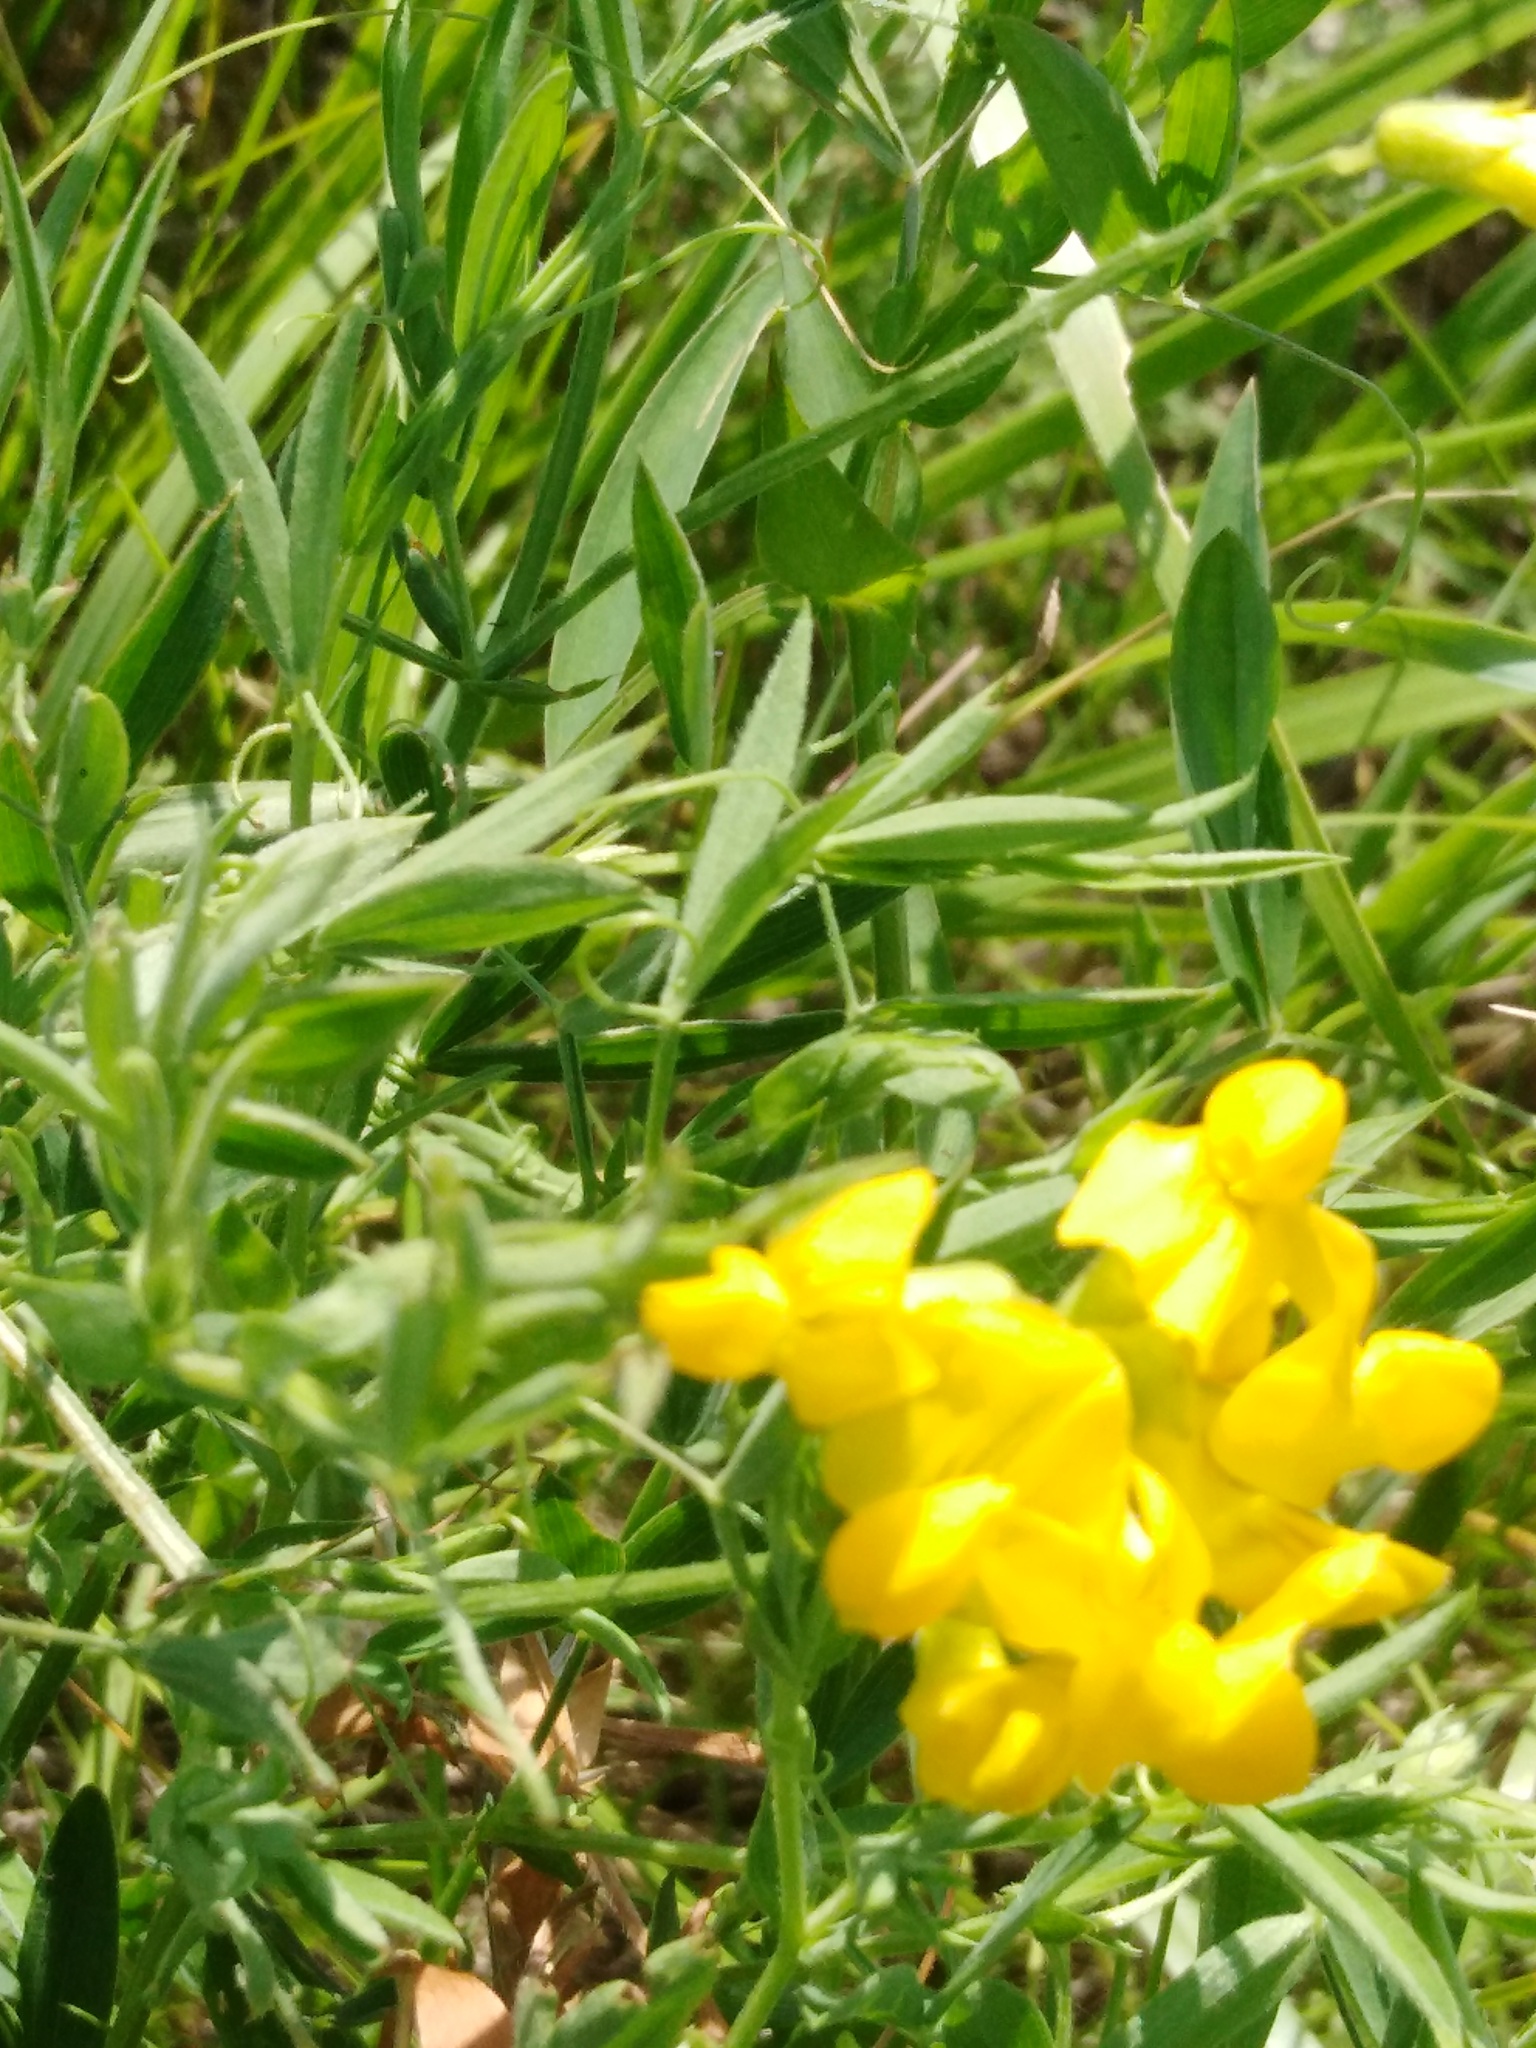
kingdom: Plantae
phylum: Tracheophyta
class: Magnoliopsida
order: Fabales
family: Fabaceae
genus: Lathyrus
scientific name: Lathyrus pratensis
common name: Meadow vetchling
